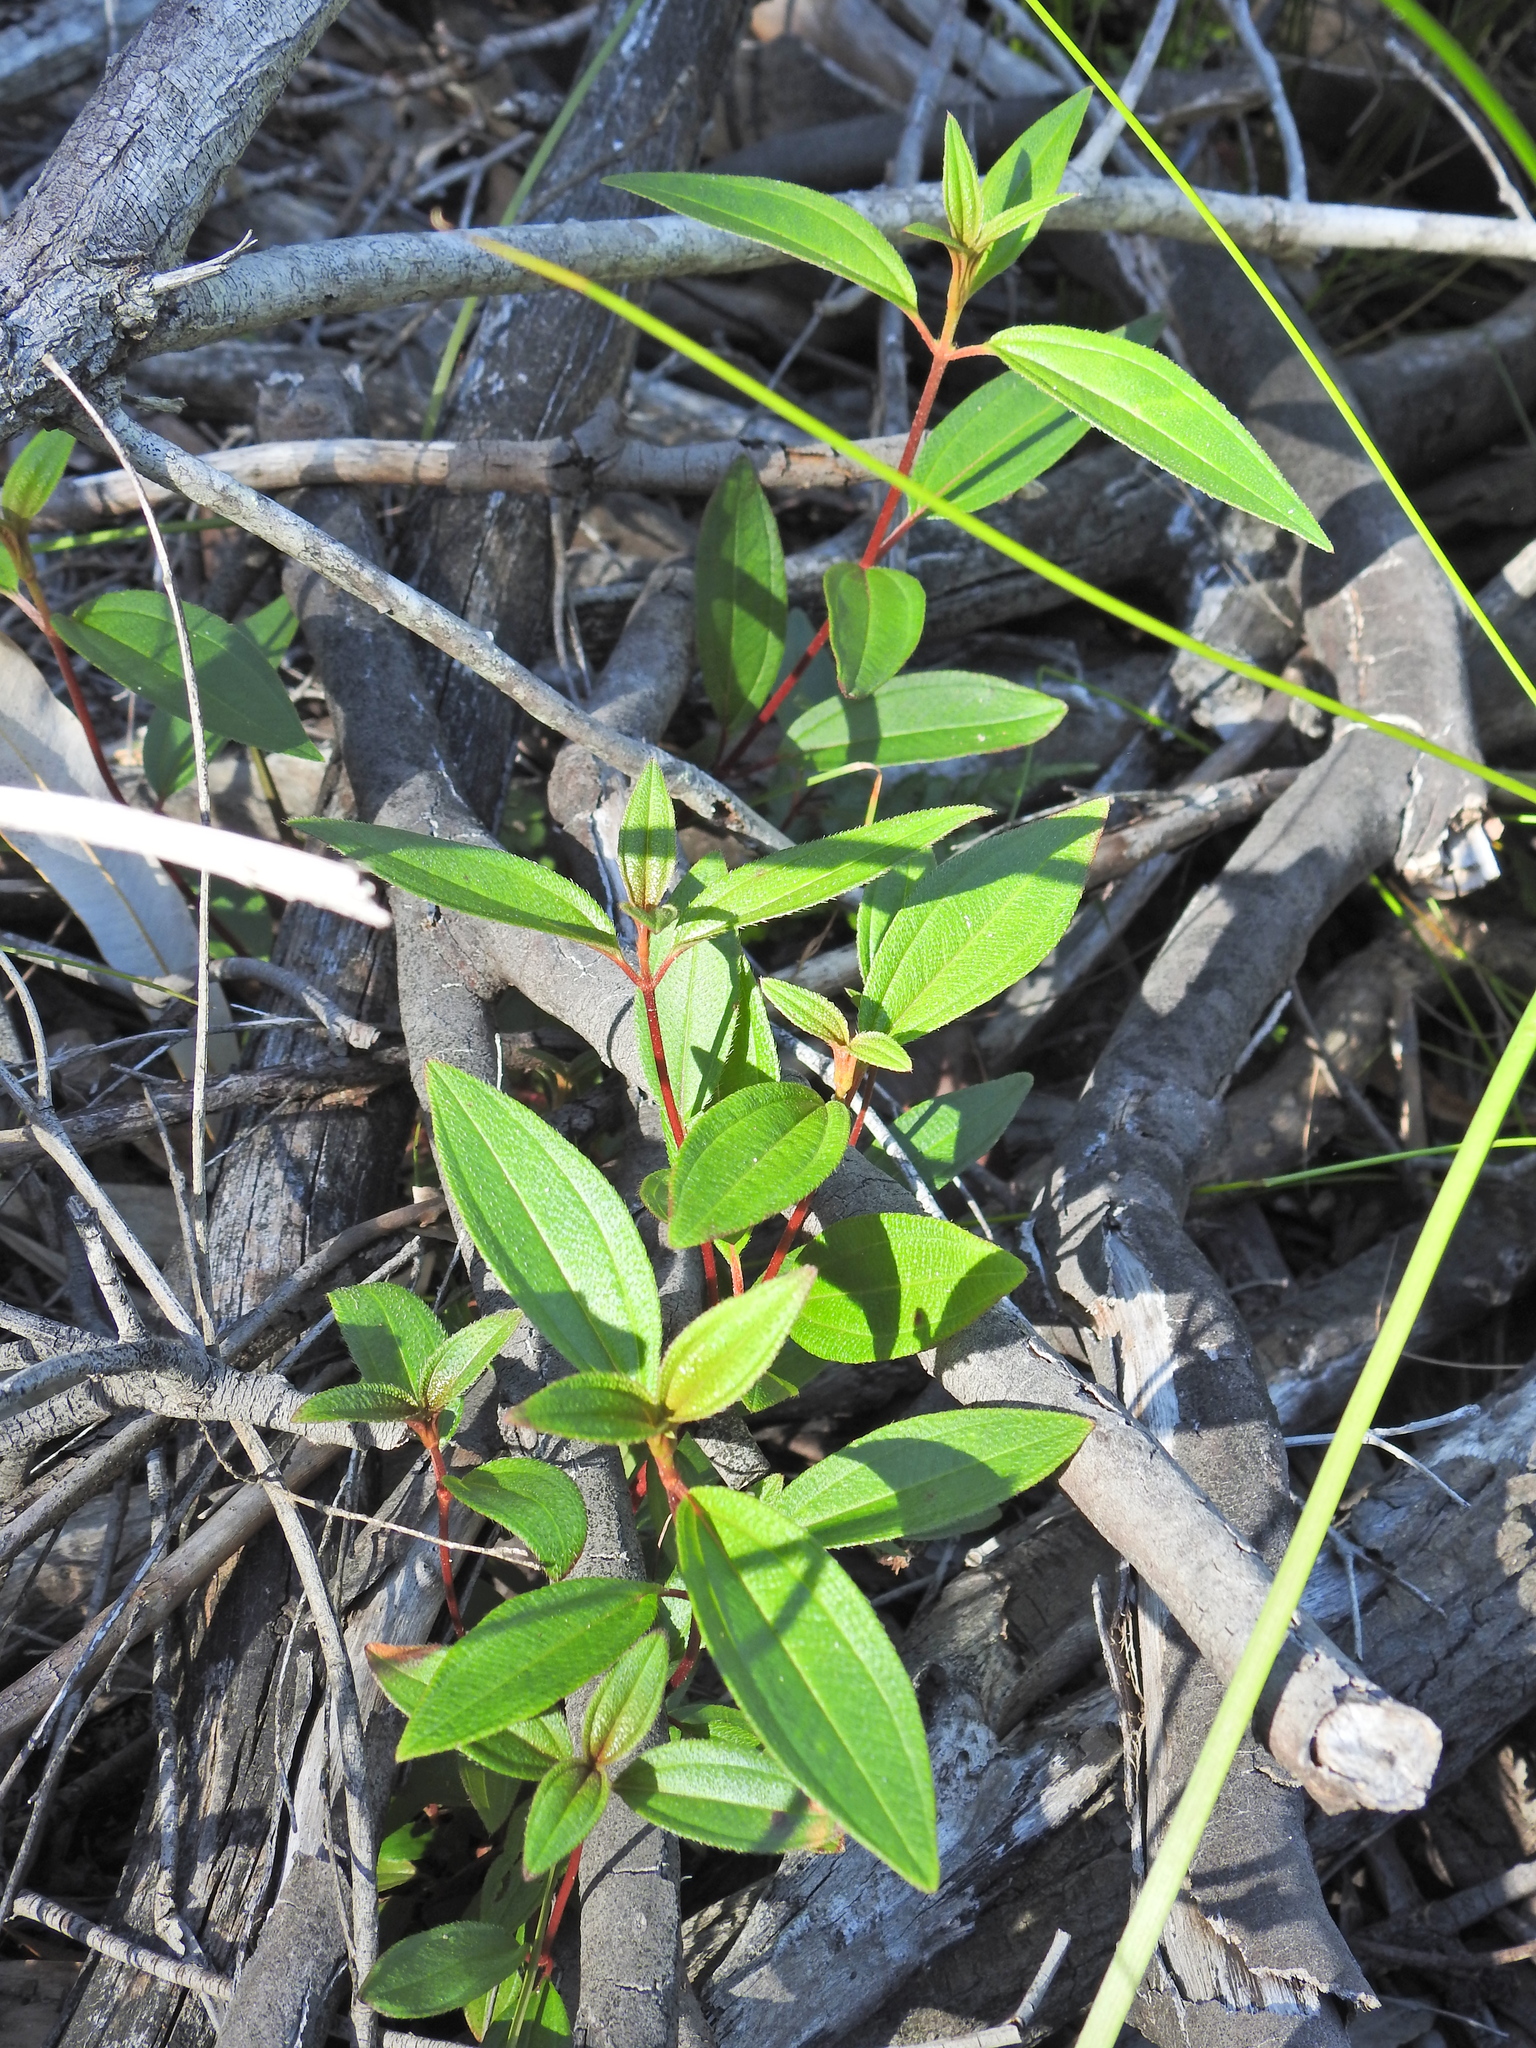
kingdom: Plantae
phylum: Tracheophyta
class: Magnoliopsida
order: Myrtales
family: Melastomataceae
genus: Melastoma
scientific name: Melastoma malabathricum
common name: Indian-rhododendron
